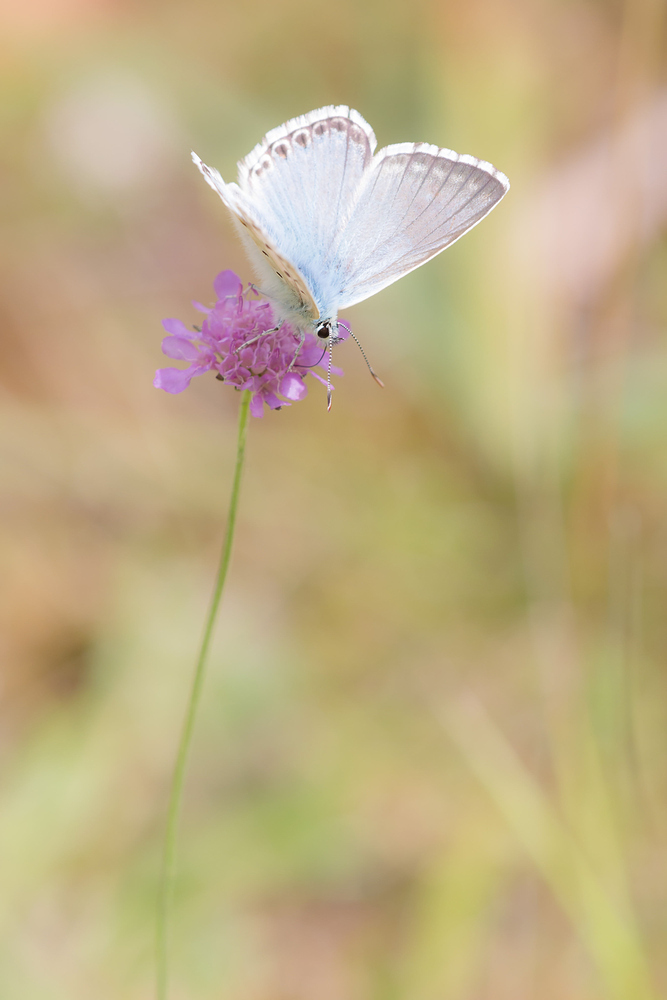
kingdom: Animalia
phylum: Arthropoda
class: Insecta
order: Lepidoptera
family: Lycaenidae
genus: Lysandra
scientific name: Lysandra coridon
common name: Chalkhill blue
